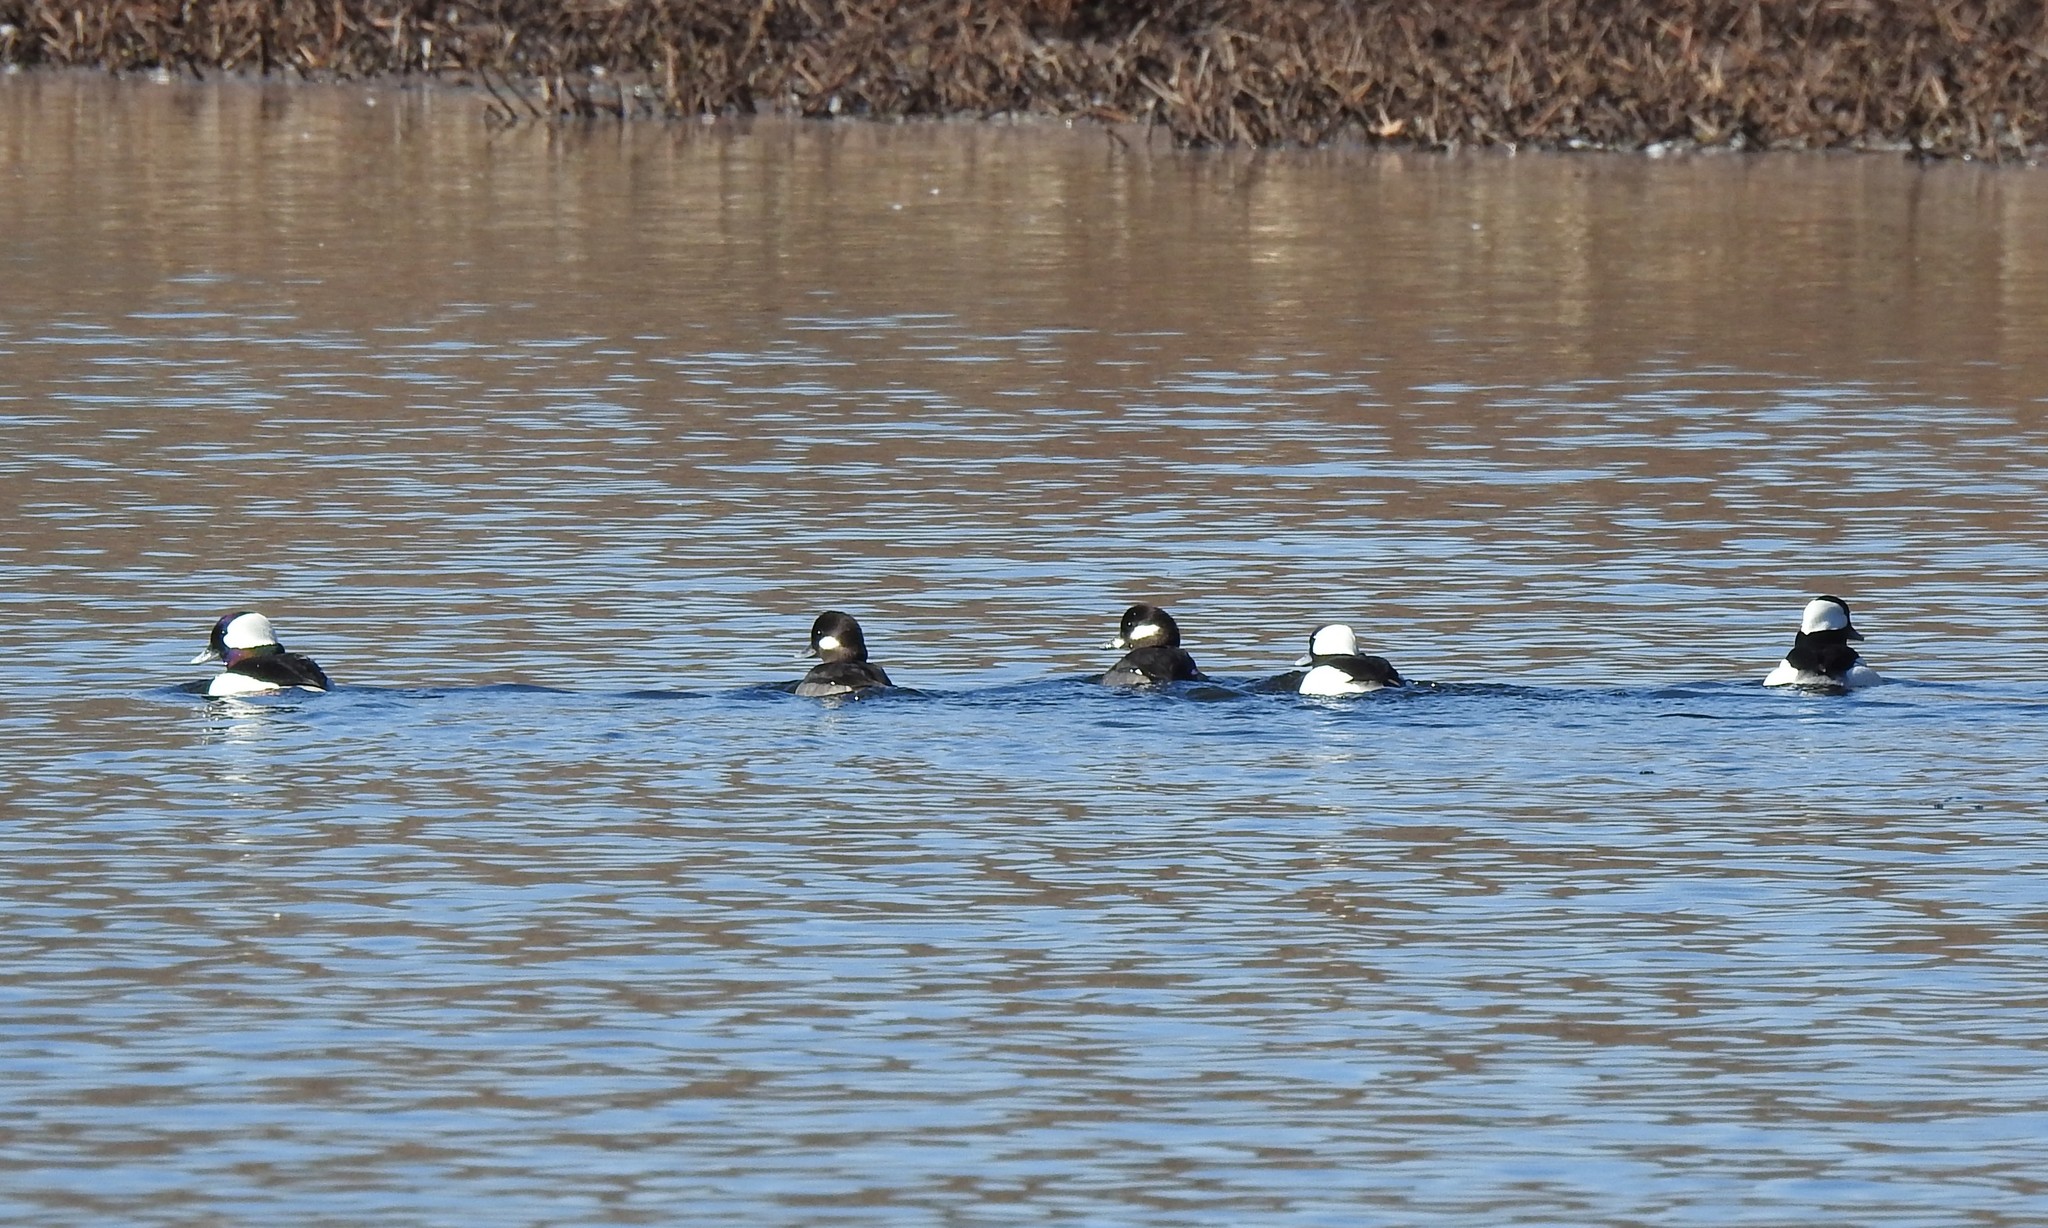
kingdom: Animalia
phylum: Chordata
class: Aves
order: Anseriformes
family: Anatidae
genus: Bucephala
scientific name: Bucephala albeola
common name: Bufflehead
